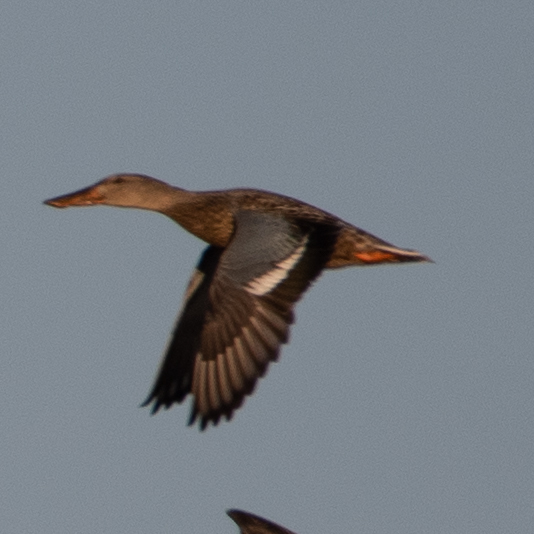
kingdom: Animalia
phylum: Chordata
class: Aves
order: Anseriformes
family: Anatidae
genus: Spatula
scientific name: Spatula clypeata
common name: Northern shoveler
